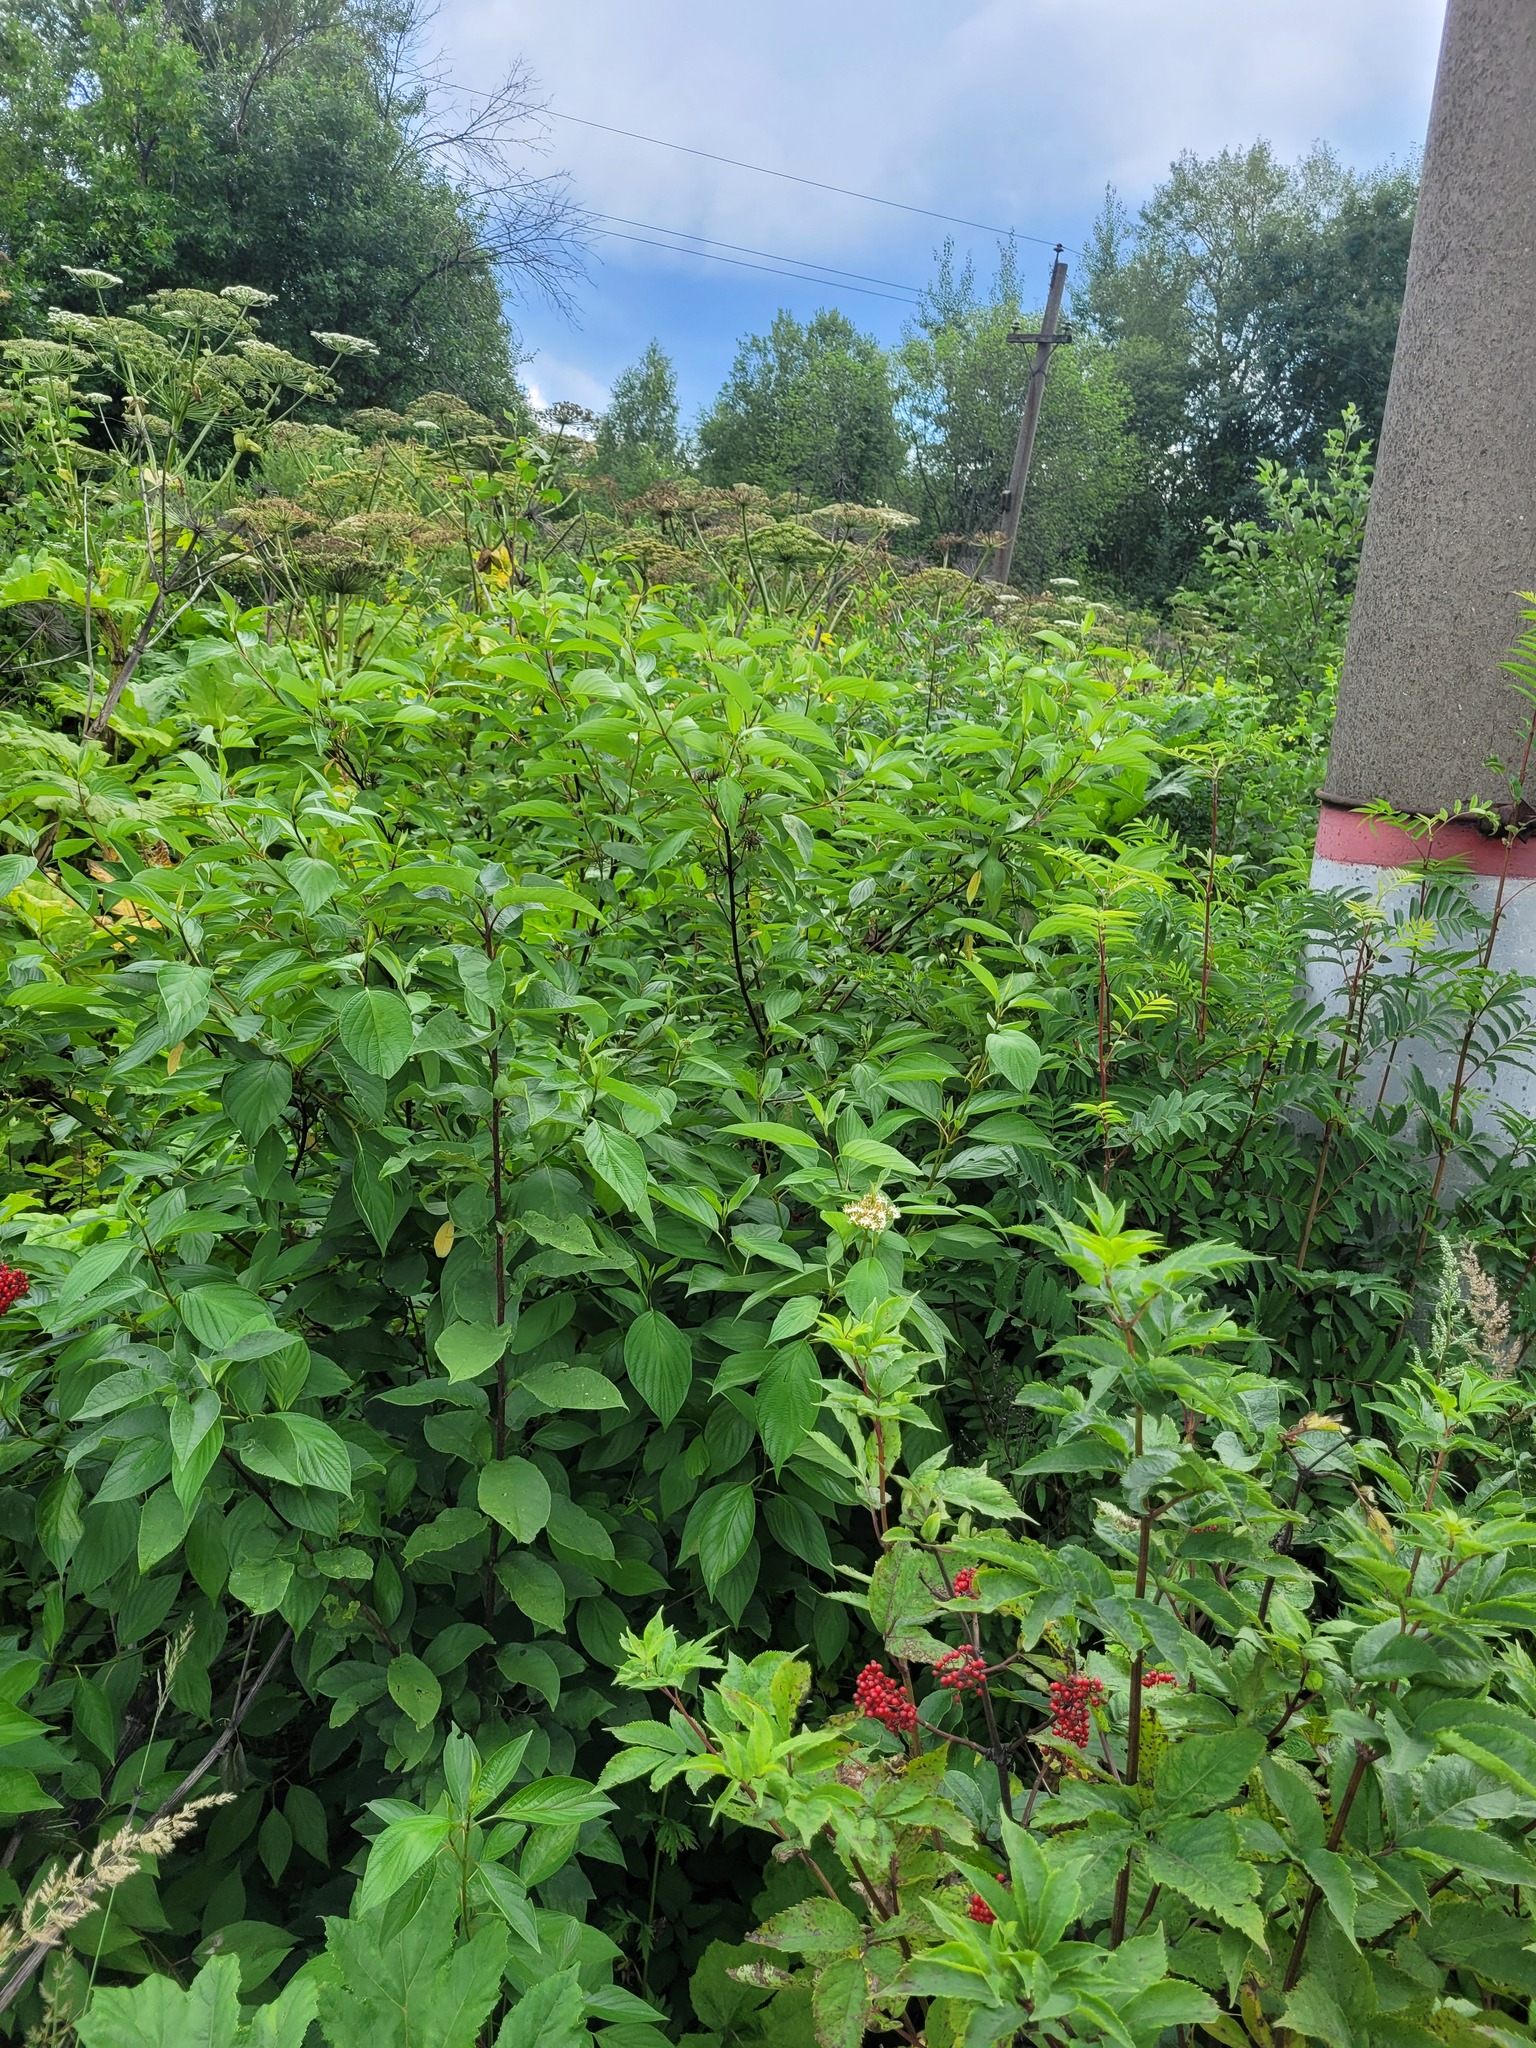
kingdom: Plantae
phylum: Tracheophyta
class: Magnoliopsida
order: Cornales
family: Cornaceae
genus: Cornus
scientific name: Cornus alba
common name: White dogwood
